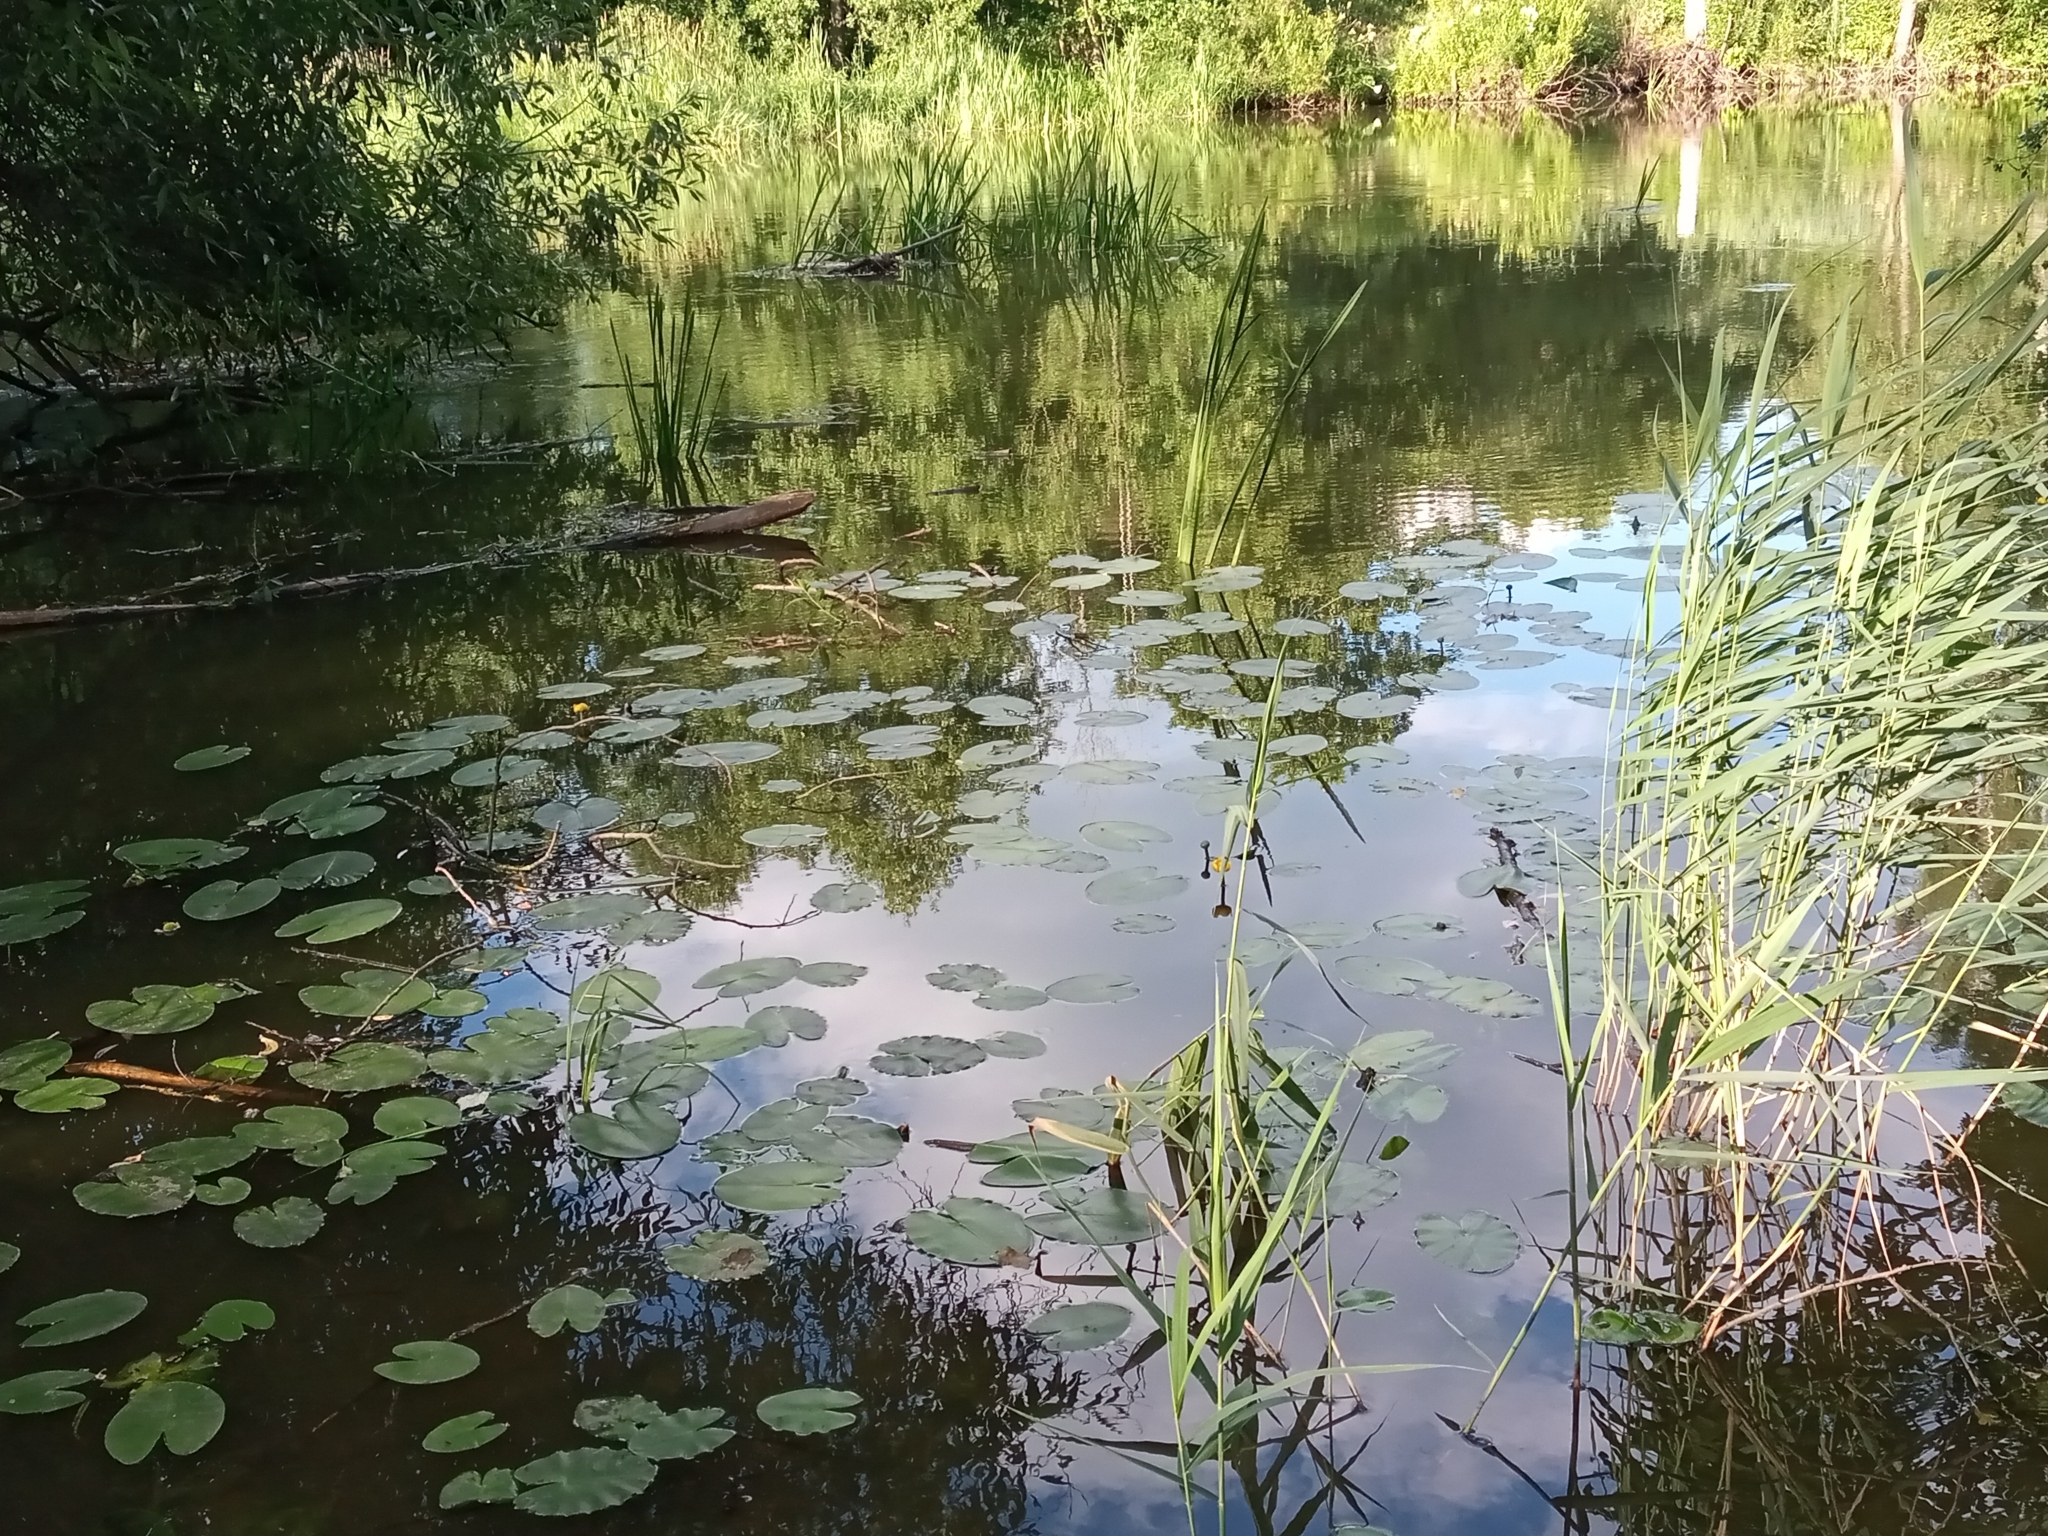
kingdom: Plantae
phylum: Tracheophyta
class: Magnoliopsida
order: Nymphaeales
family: Nymphaeaceae
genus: Nuphar
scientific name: Nuphar lutea
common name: Yellow water-lily
